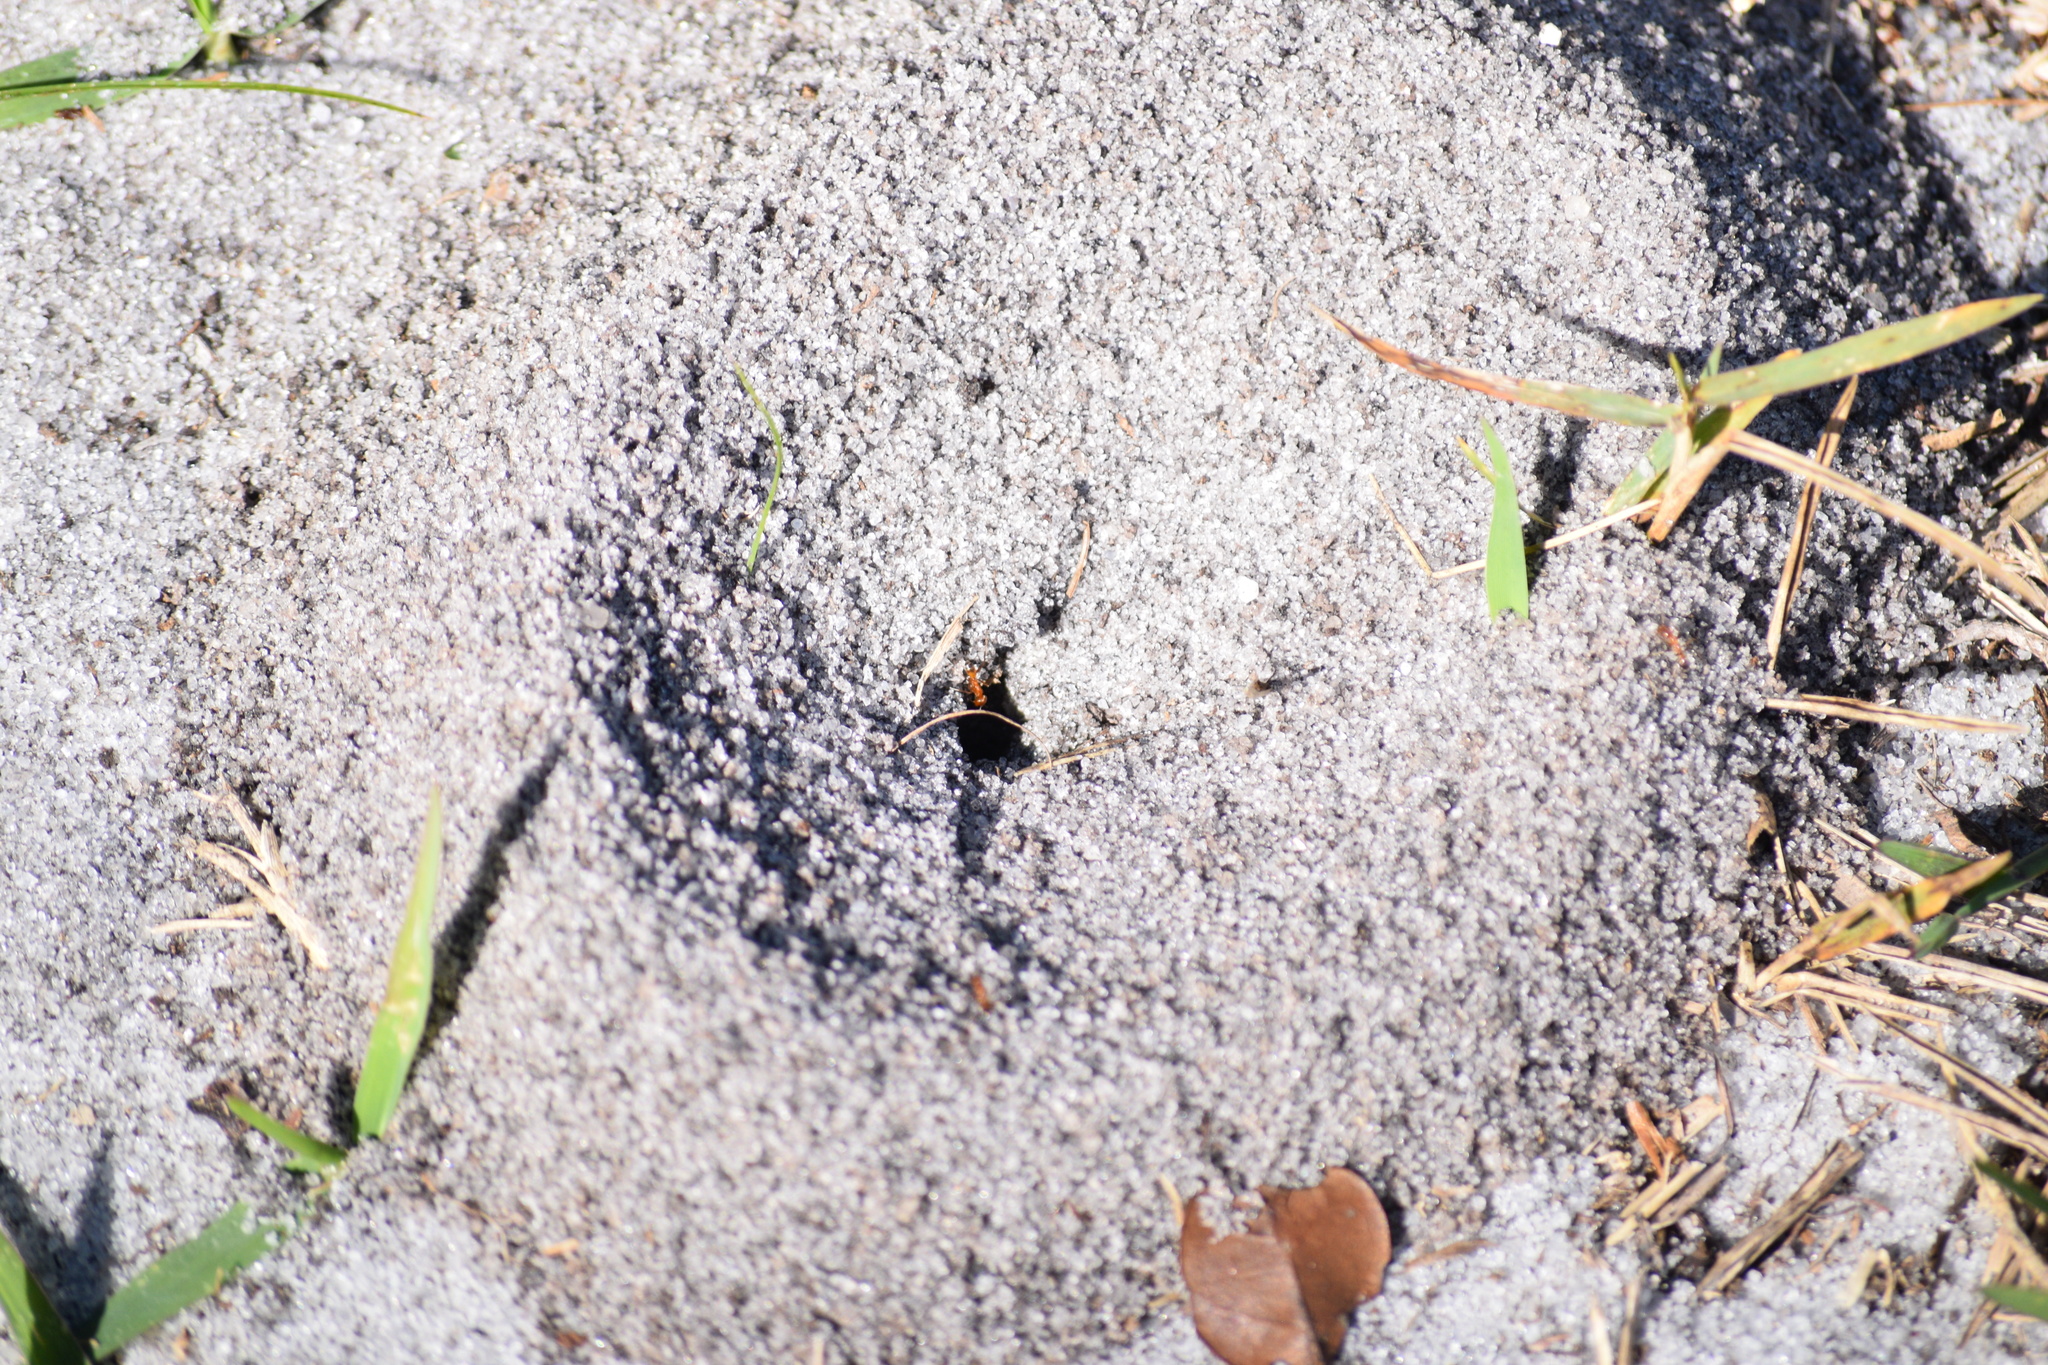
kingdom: Animalia
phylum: Arthropoda
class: Insecta
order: Hymenoptera
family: Formicidae
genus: Dorymyrmex
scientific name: Dorymyrmex bureni
